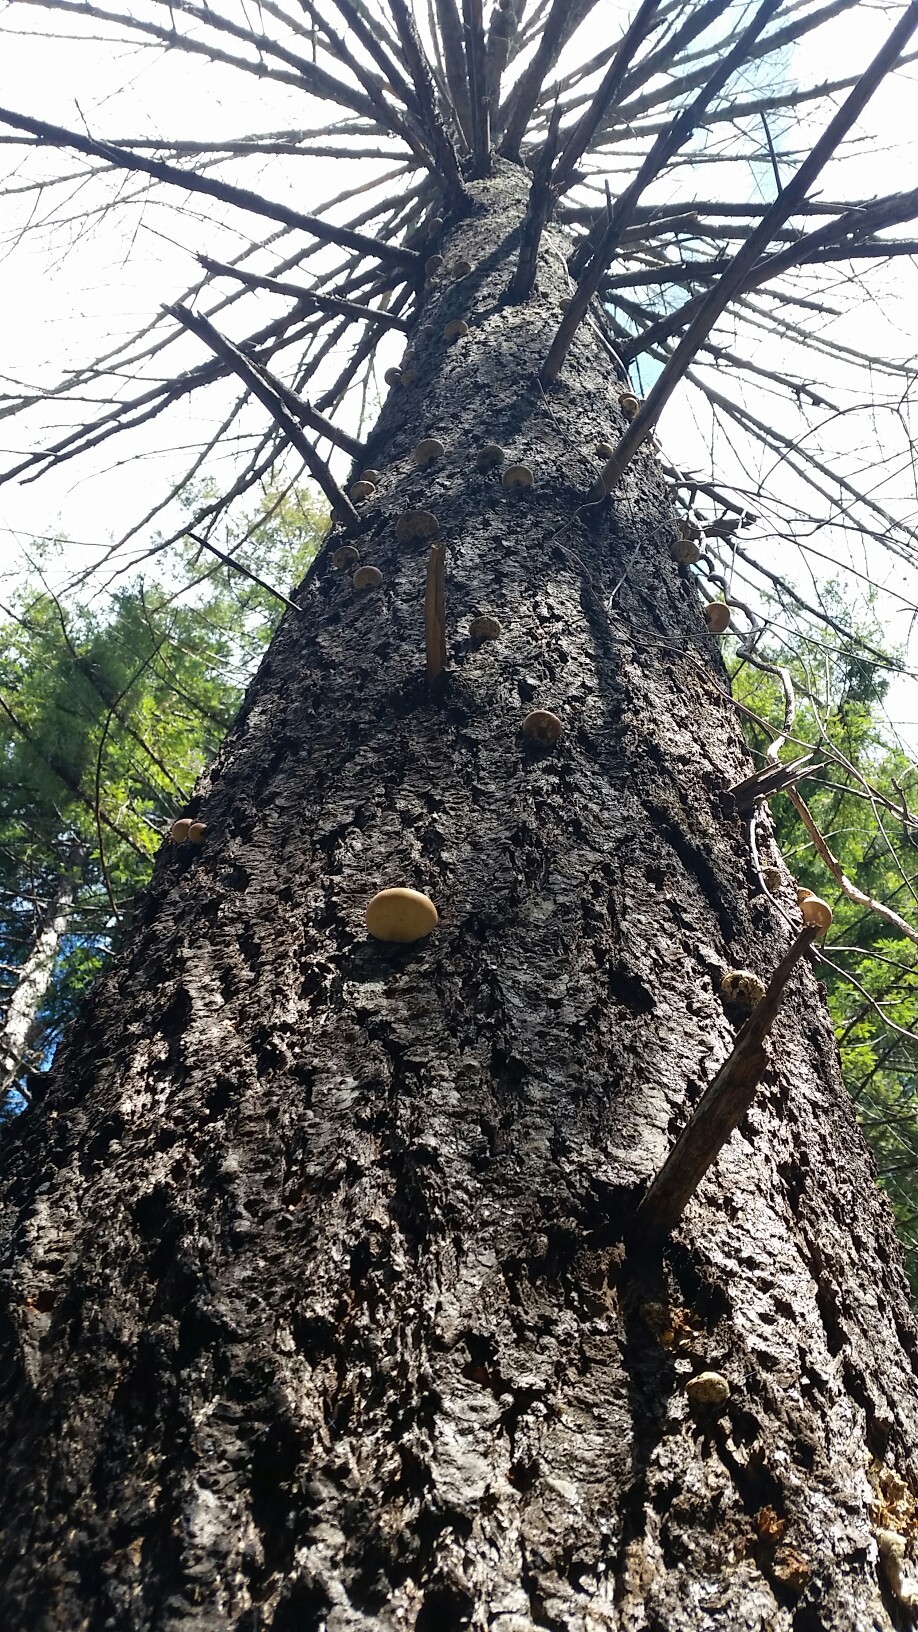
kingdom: Fungi
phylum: Basidiomycota
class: Agaricomycetes
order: Polyporales
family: Polyporaceae
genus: Cryptoporus
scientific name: Cryptoporus volvatus
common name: Veiled polypore
